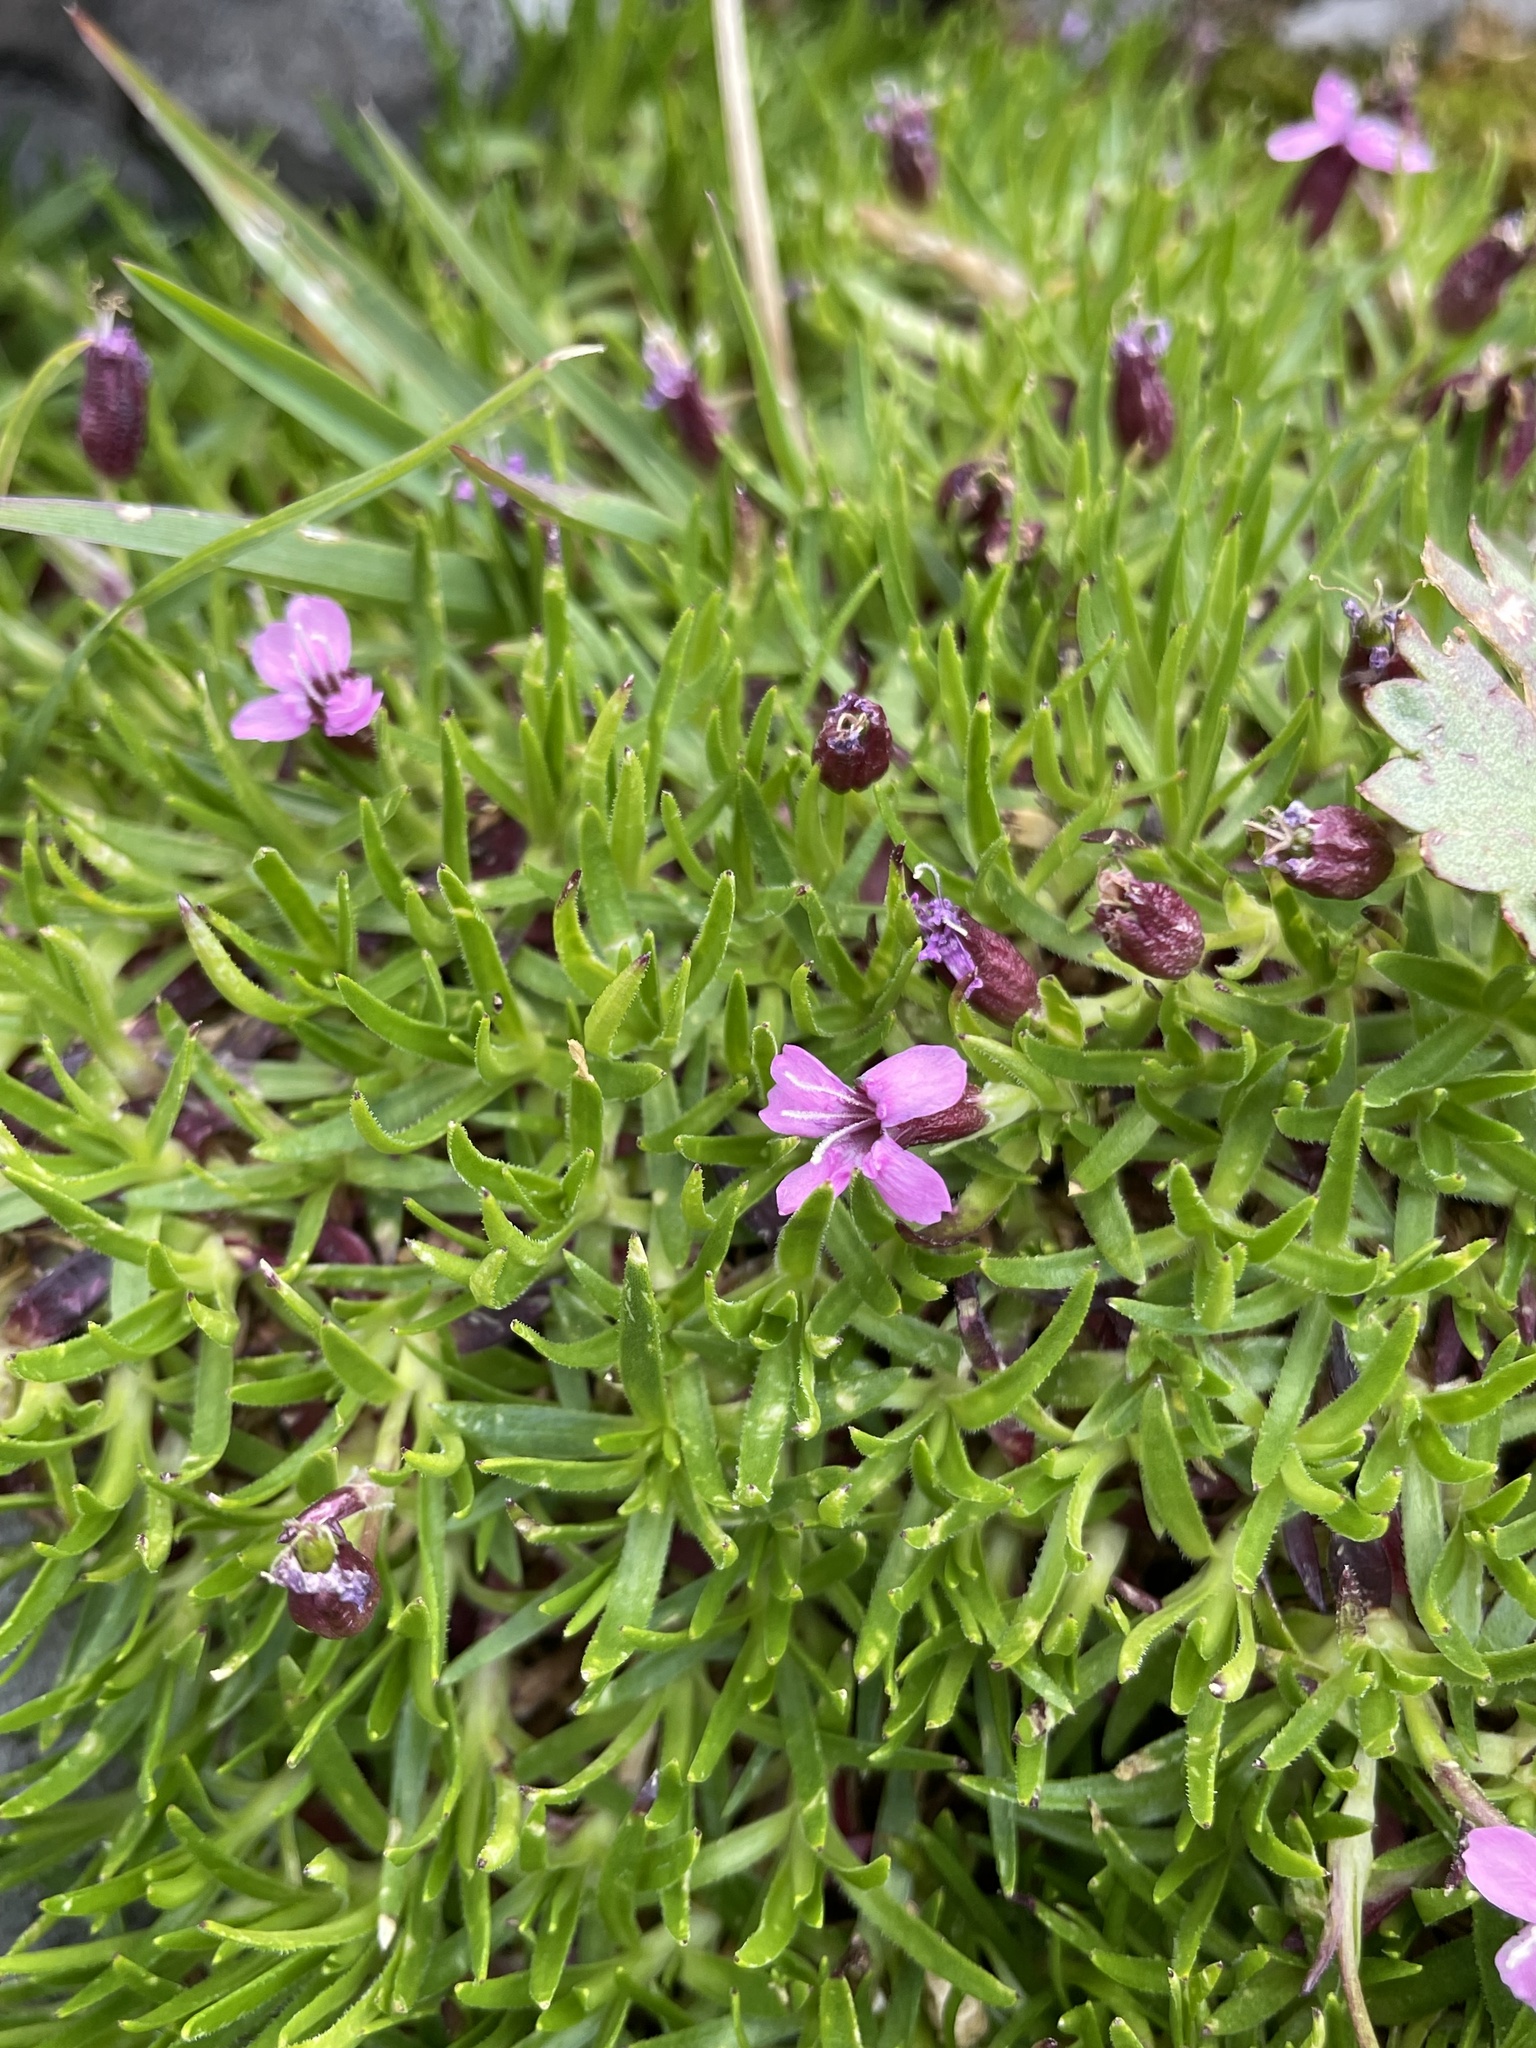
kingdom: Plantae
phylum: Tracheophyta
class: Magnoliopsida
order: Caryophyllales
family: Caryophyllaceae
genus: Silene
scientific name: Silene acaulis
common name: Moss campion
